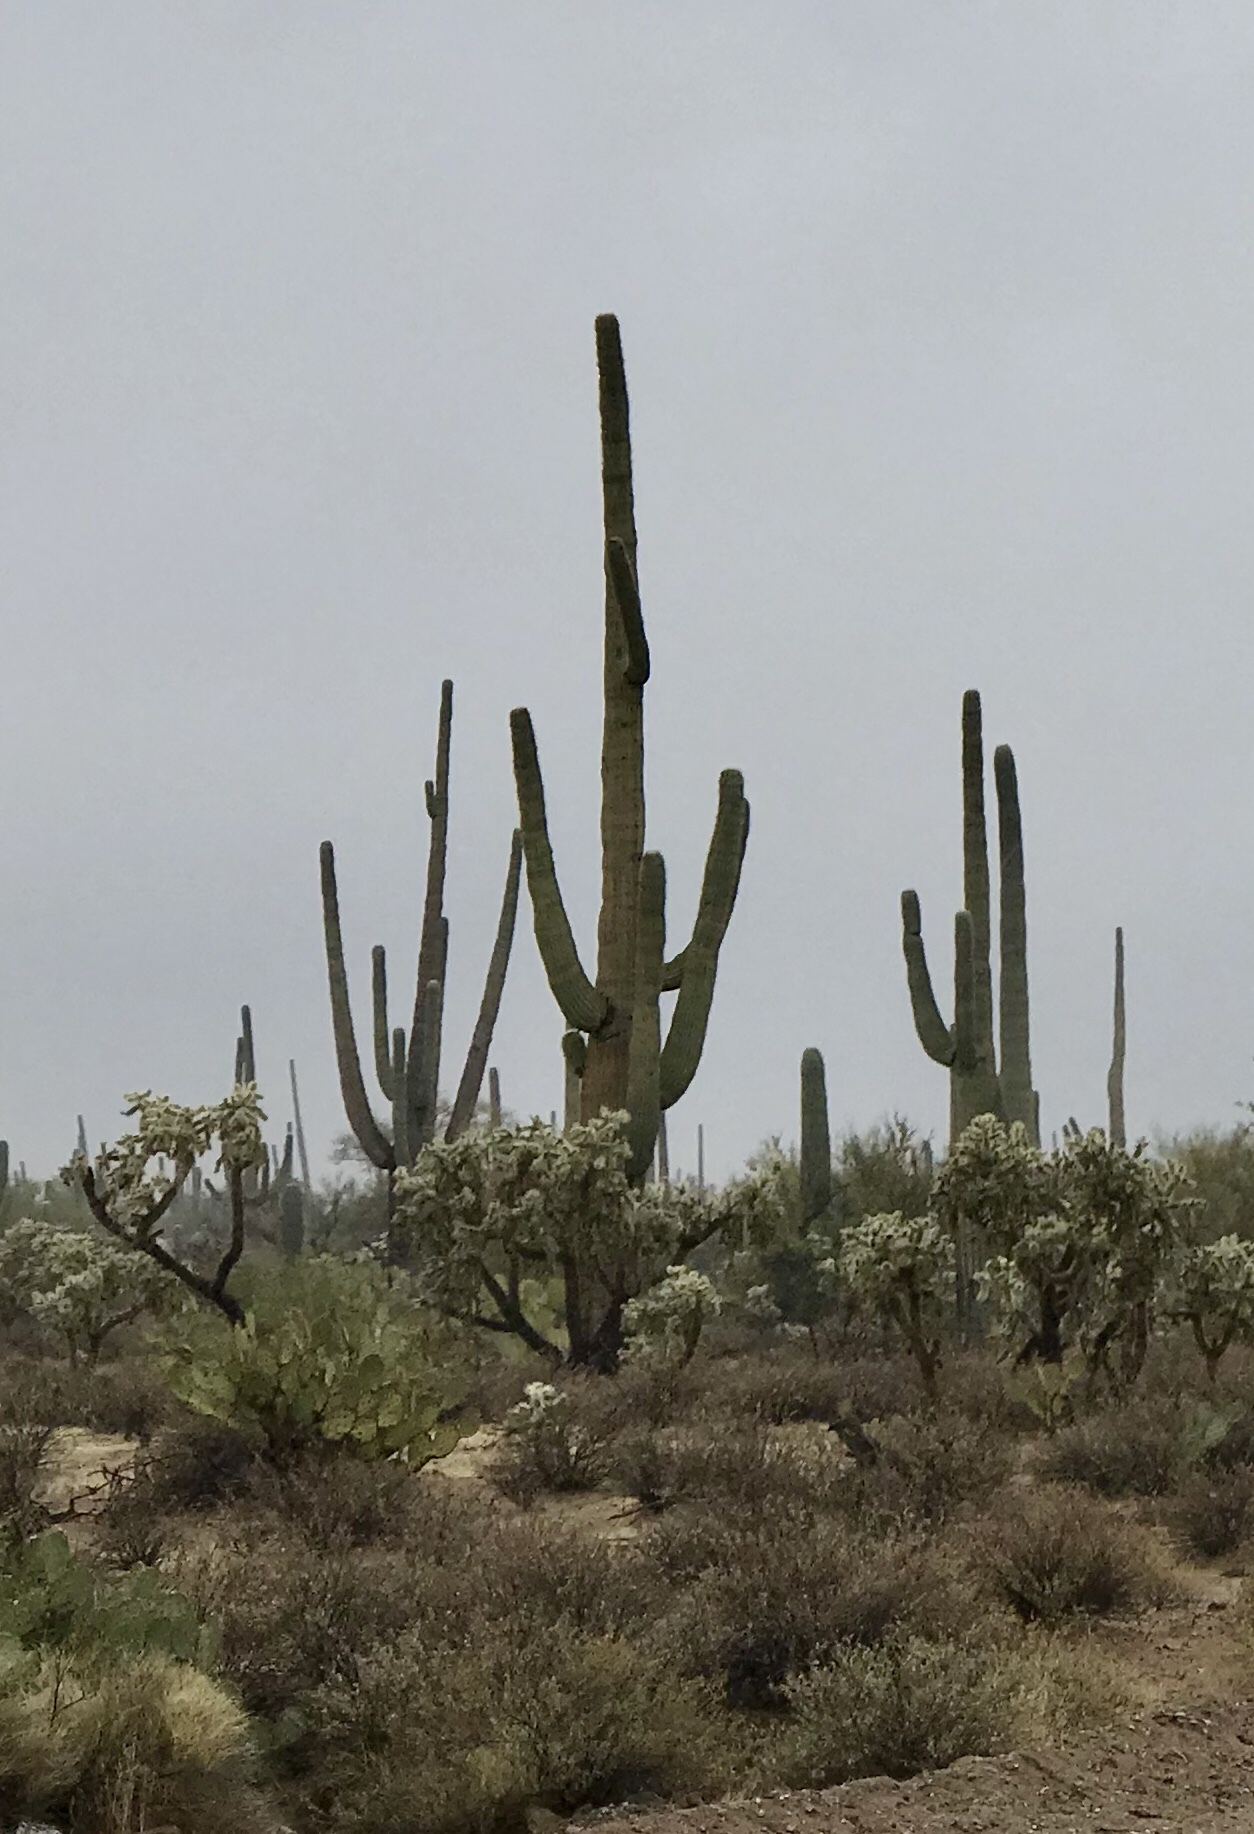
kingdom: Plantae
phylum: Tracheophyta
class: Magnoliopsida
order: Caryophyllales
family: Cactaceae
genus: Carnegiea
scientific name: Carnegiea gigantea
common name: Saguaro
